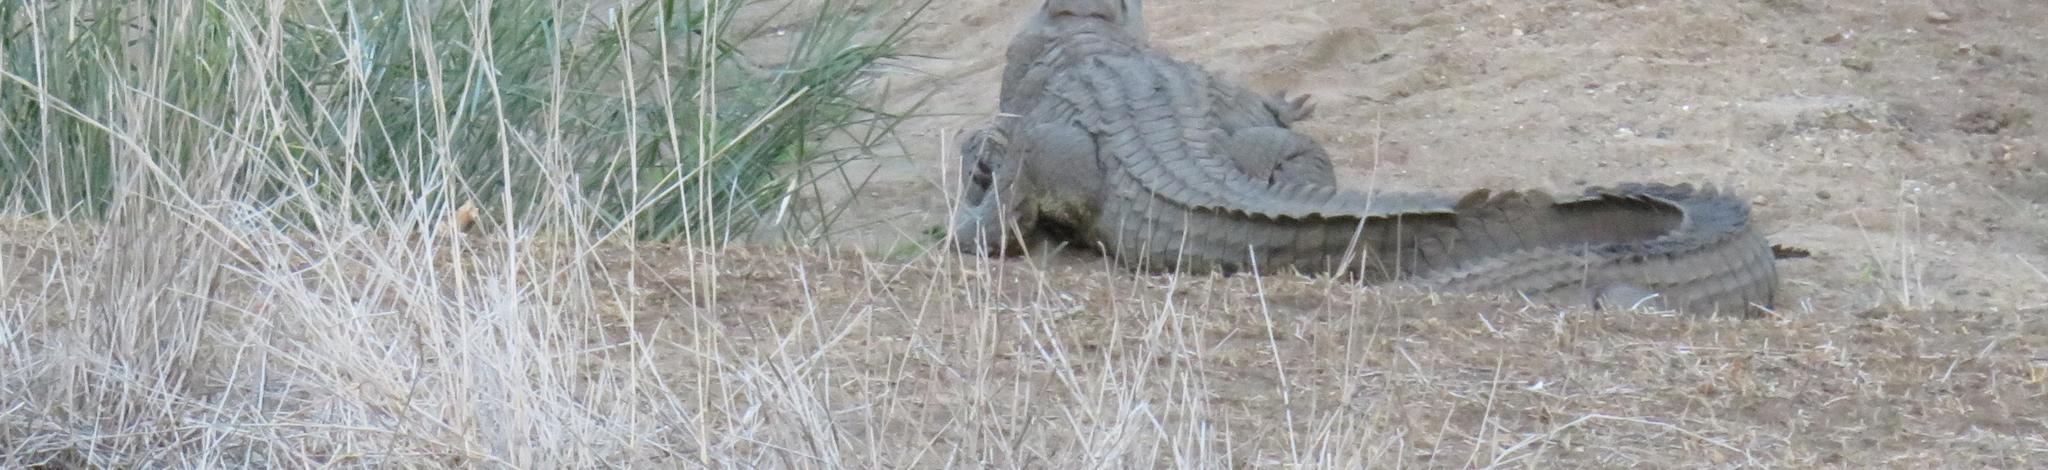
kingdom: Animalia
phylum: Chordata
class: Crocodylia
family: Crocodylidae
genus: Crocodylus
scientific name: Crocodylus niloticus
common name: Nile crocodile
